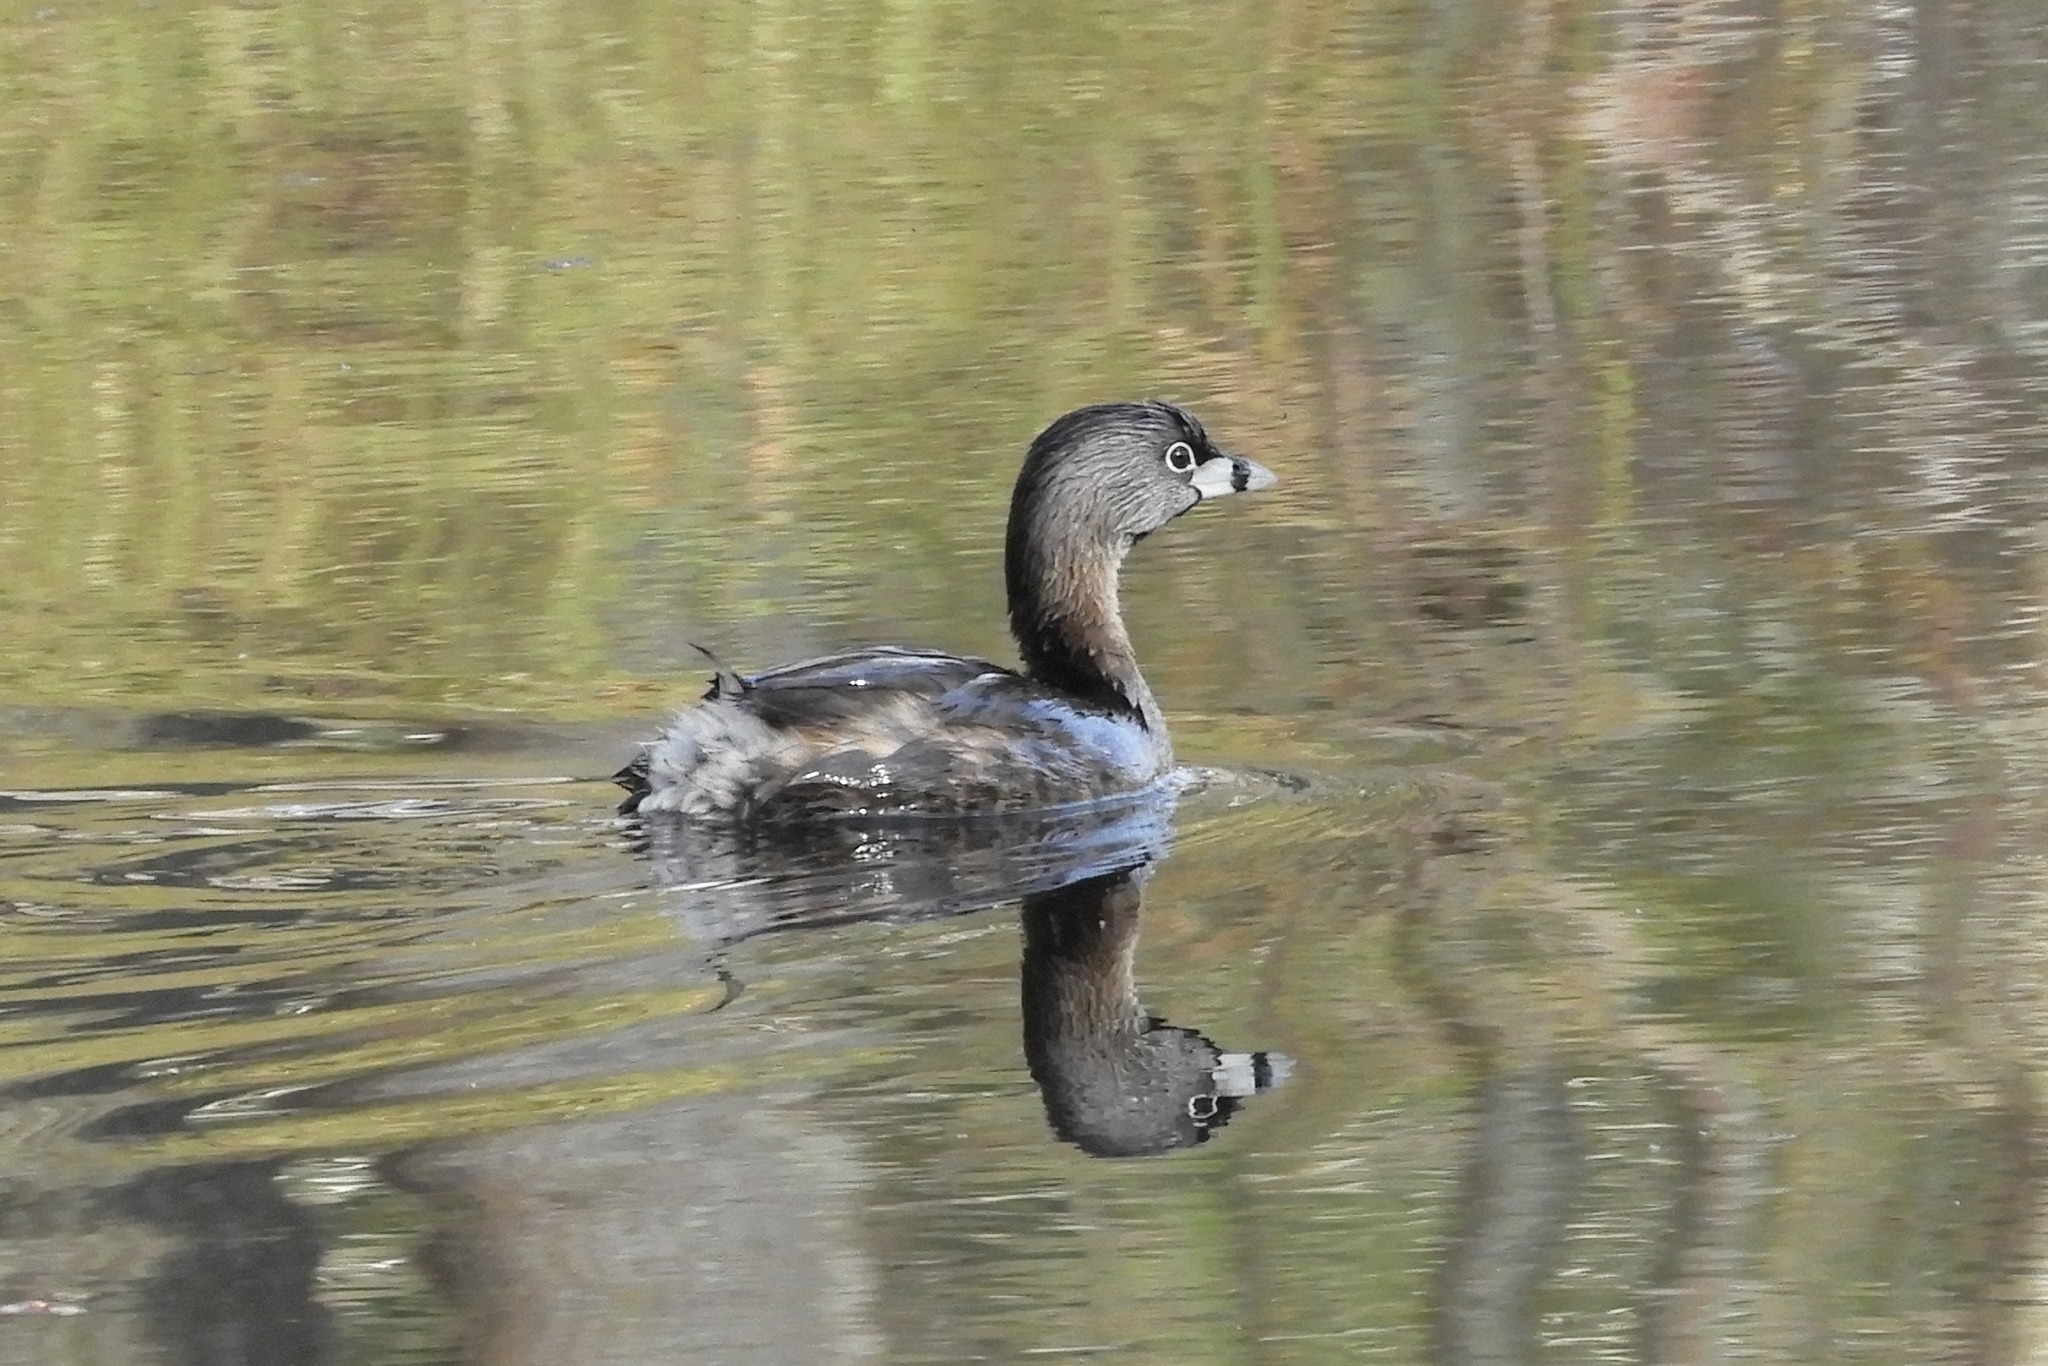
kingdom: Animalia
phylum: Chordata
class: Aves
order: Podicipediformes
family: Podicipedidae
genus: Podilymbus
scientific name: Podilymbus podiceps
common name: Pied-billed grebe
